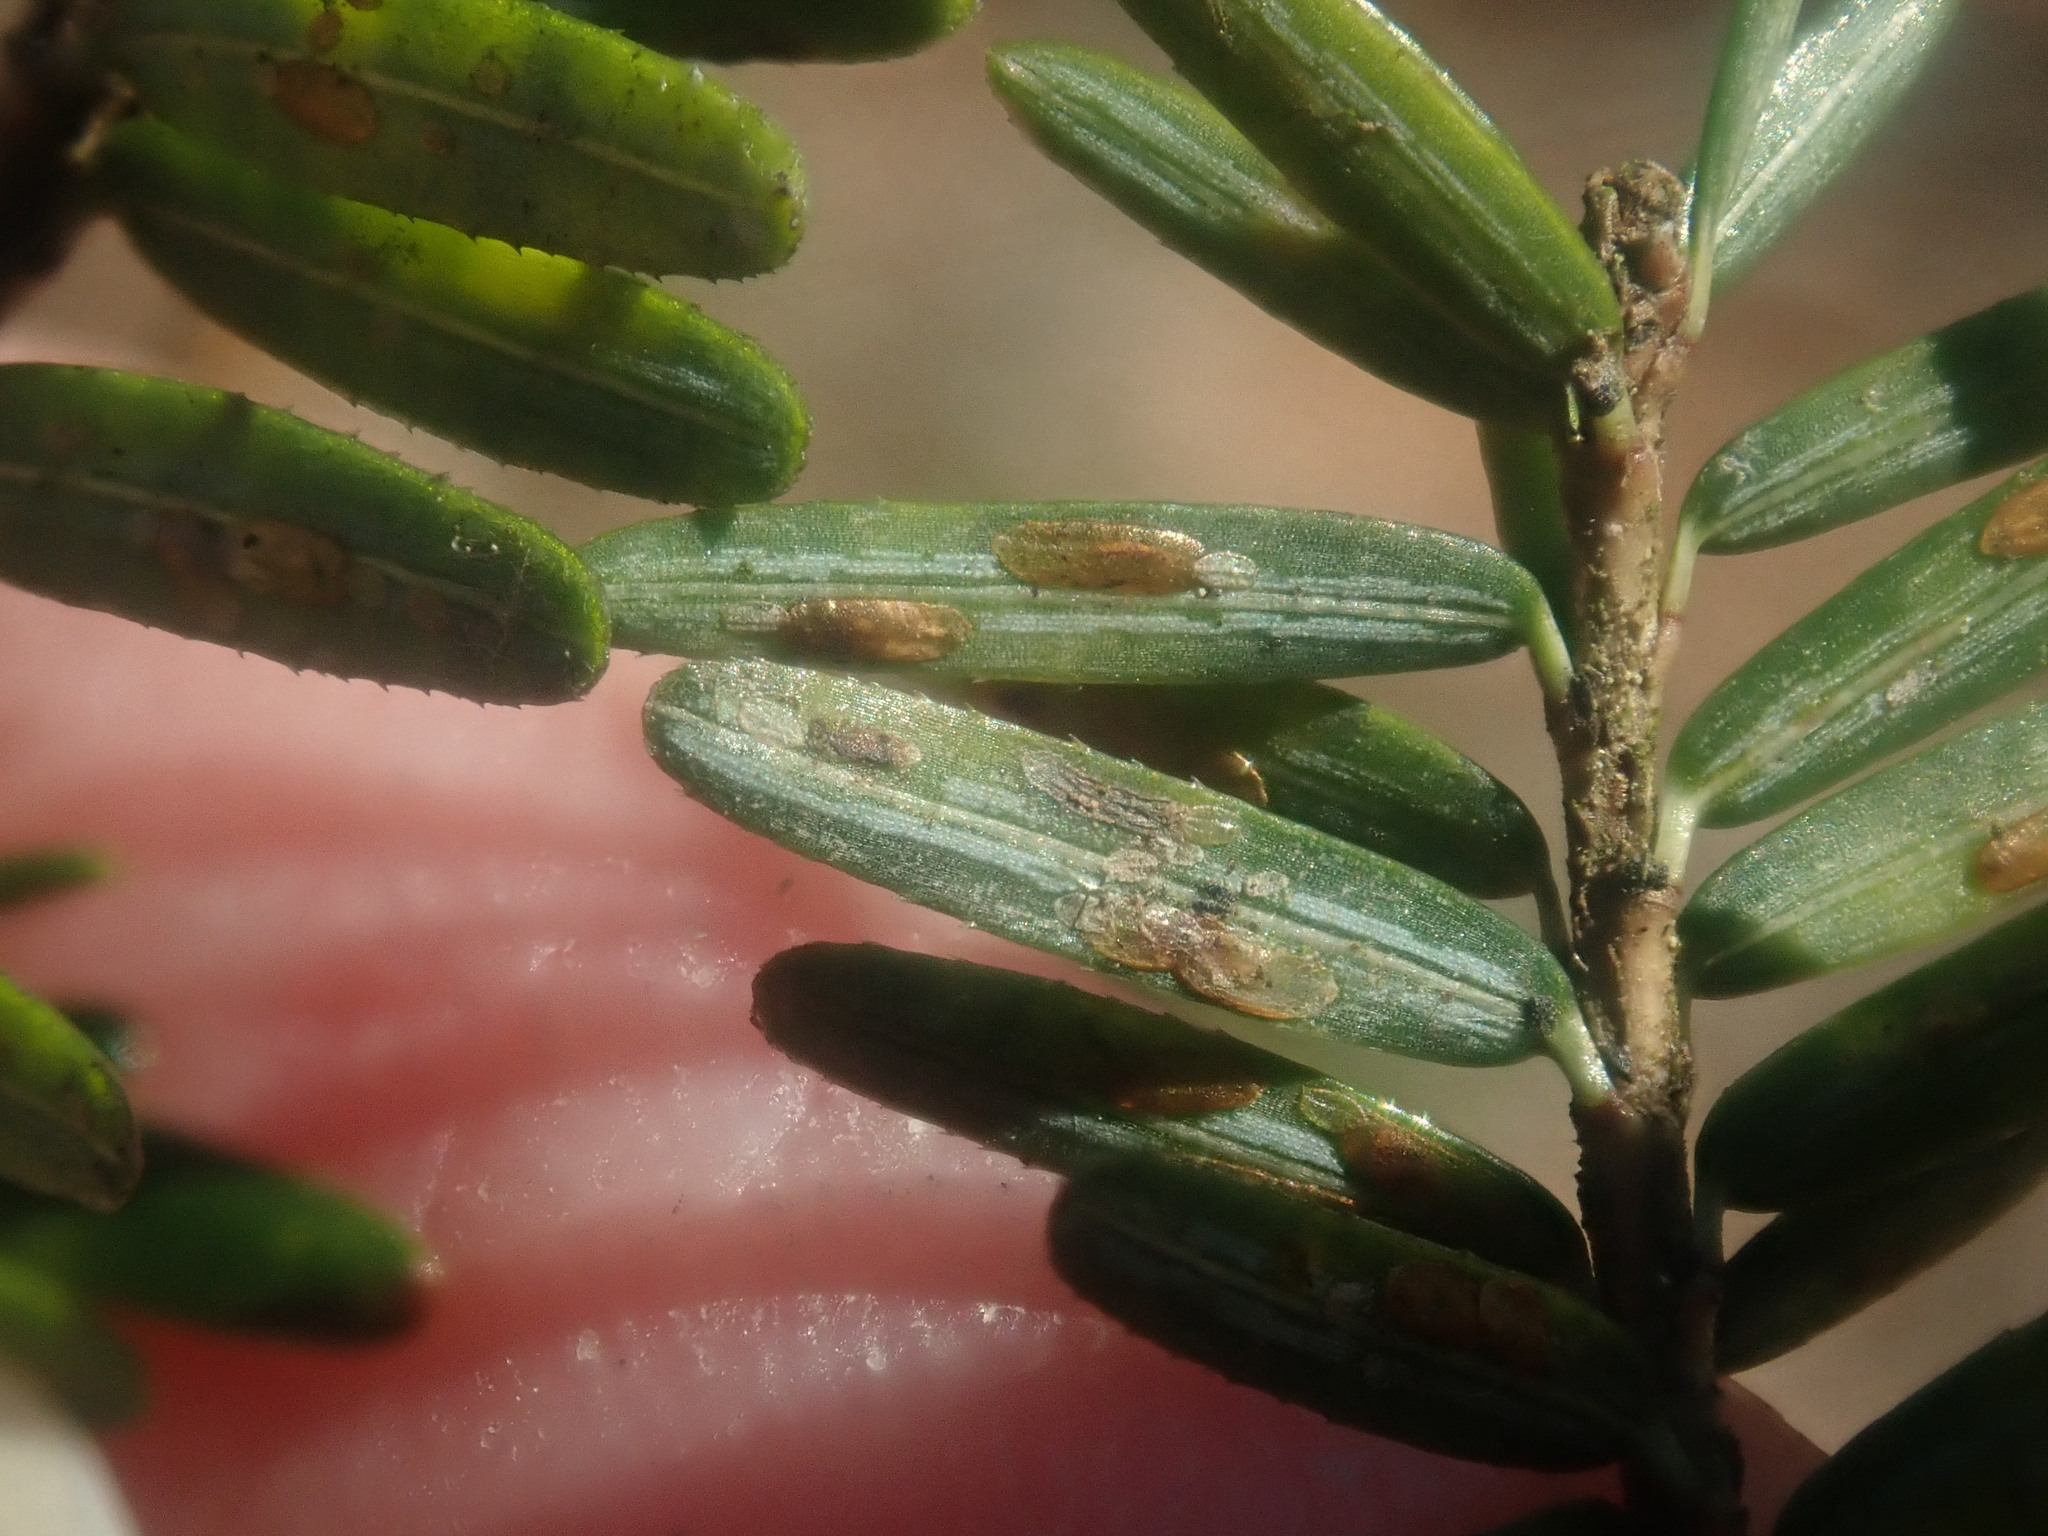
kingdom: Animalia
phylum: Arthropoda
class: Insecta
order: Hemiptera
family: Diaspididae
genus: Fiorinia
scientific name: Fiorinia externa
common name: Elongate hemlock scale
